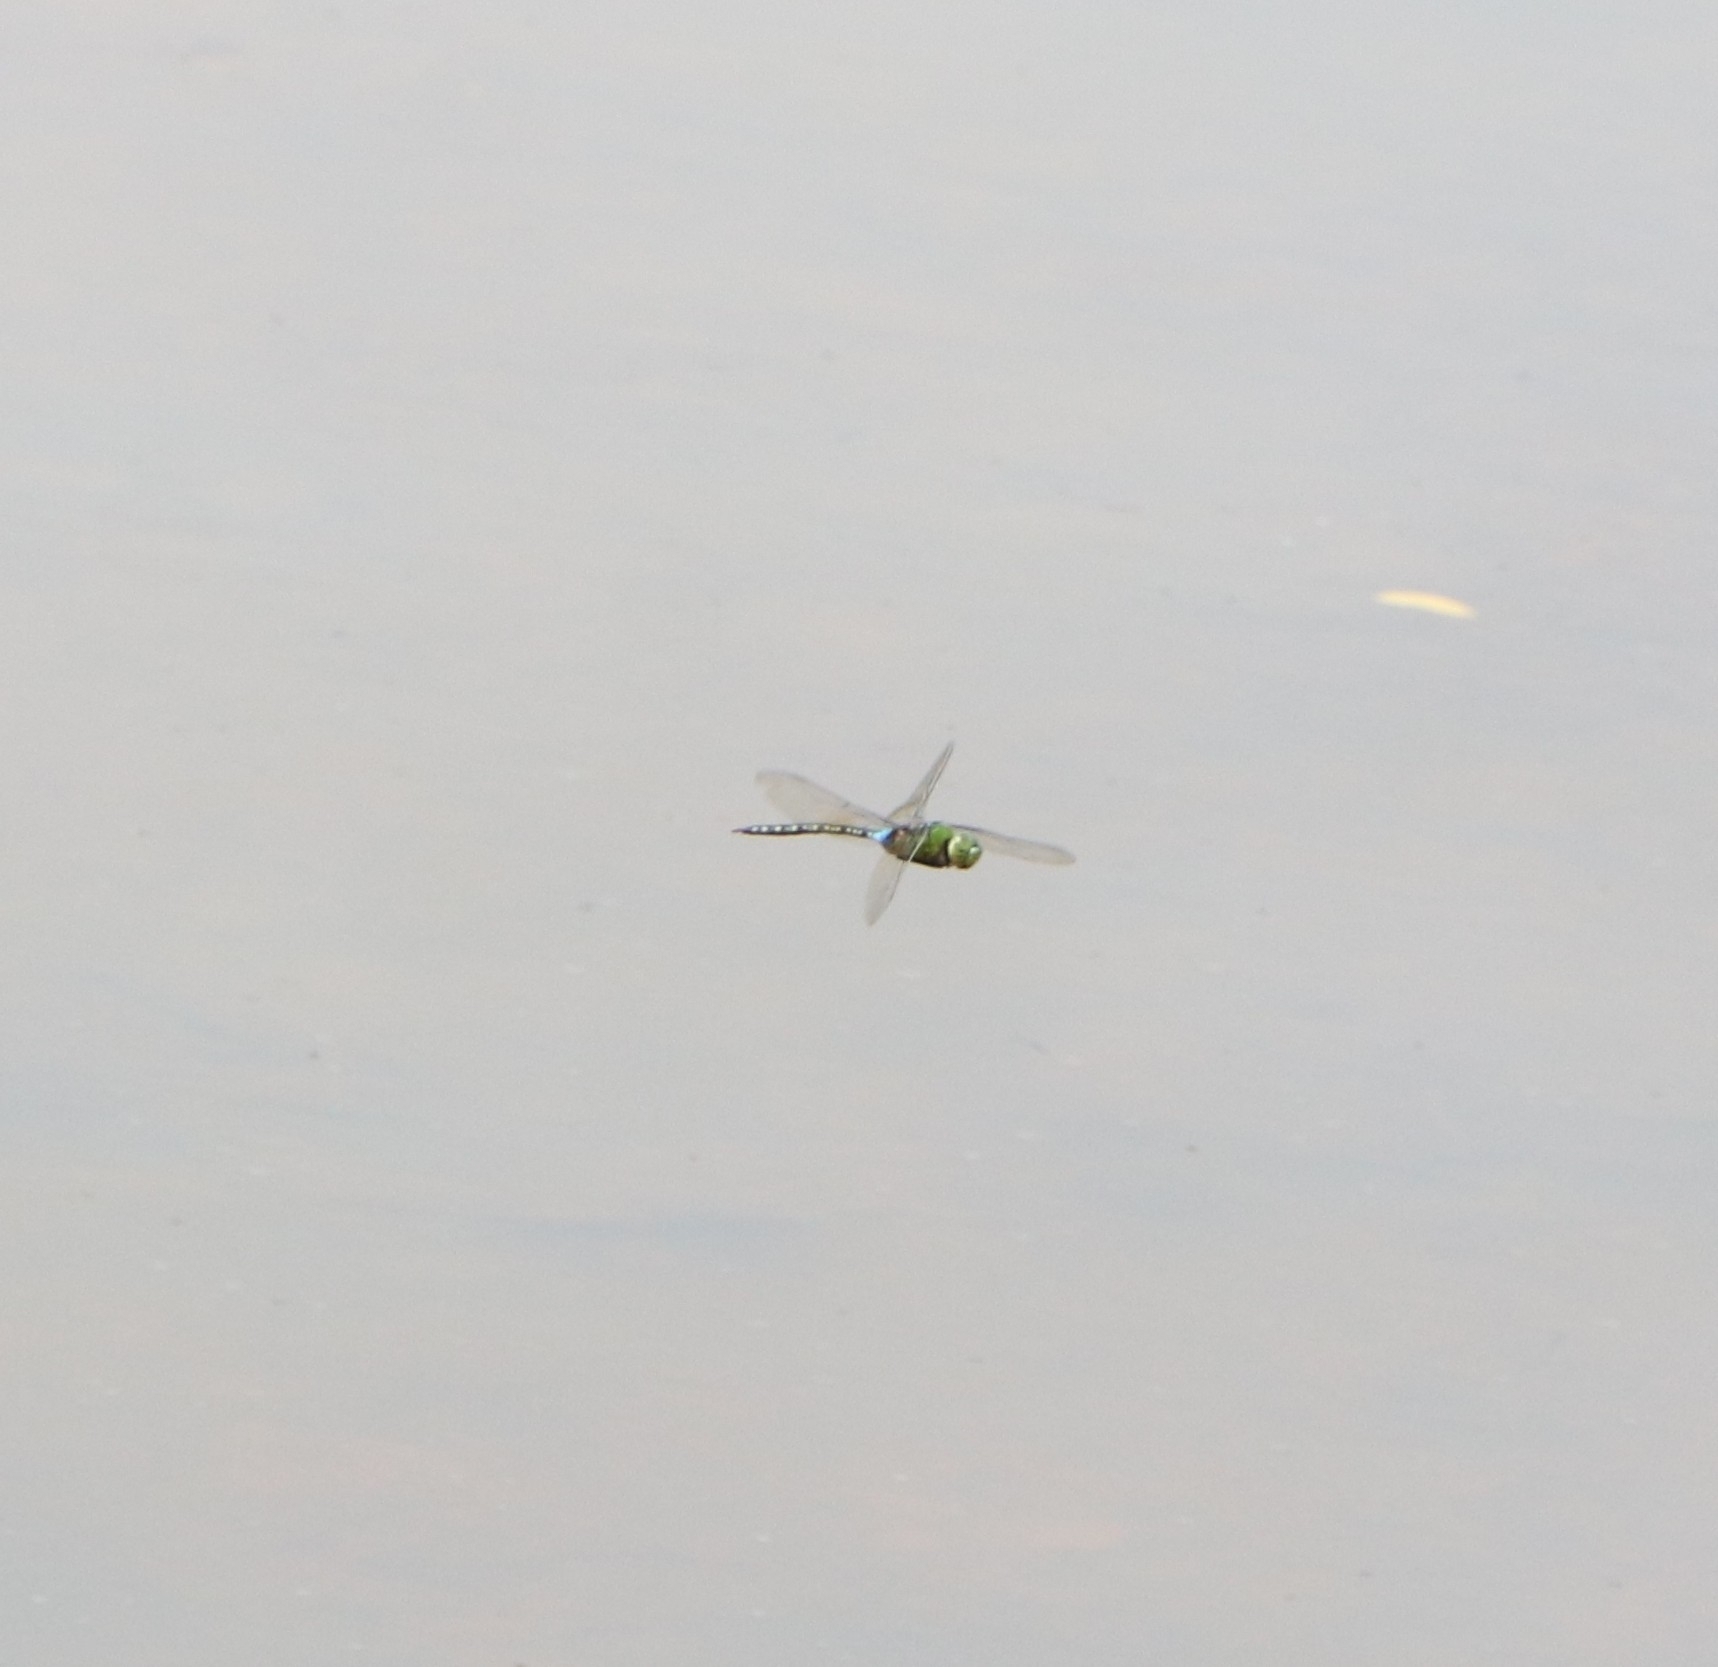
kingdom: Animalia
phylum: Arthropoda
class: Insecta
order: Odonata
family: Aeshnidae
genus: Anax
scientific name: Anax guttatus
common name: Emperor
